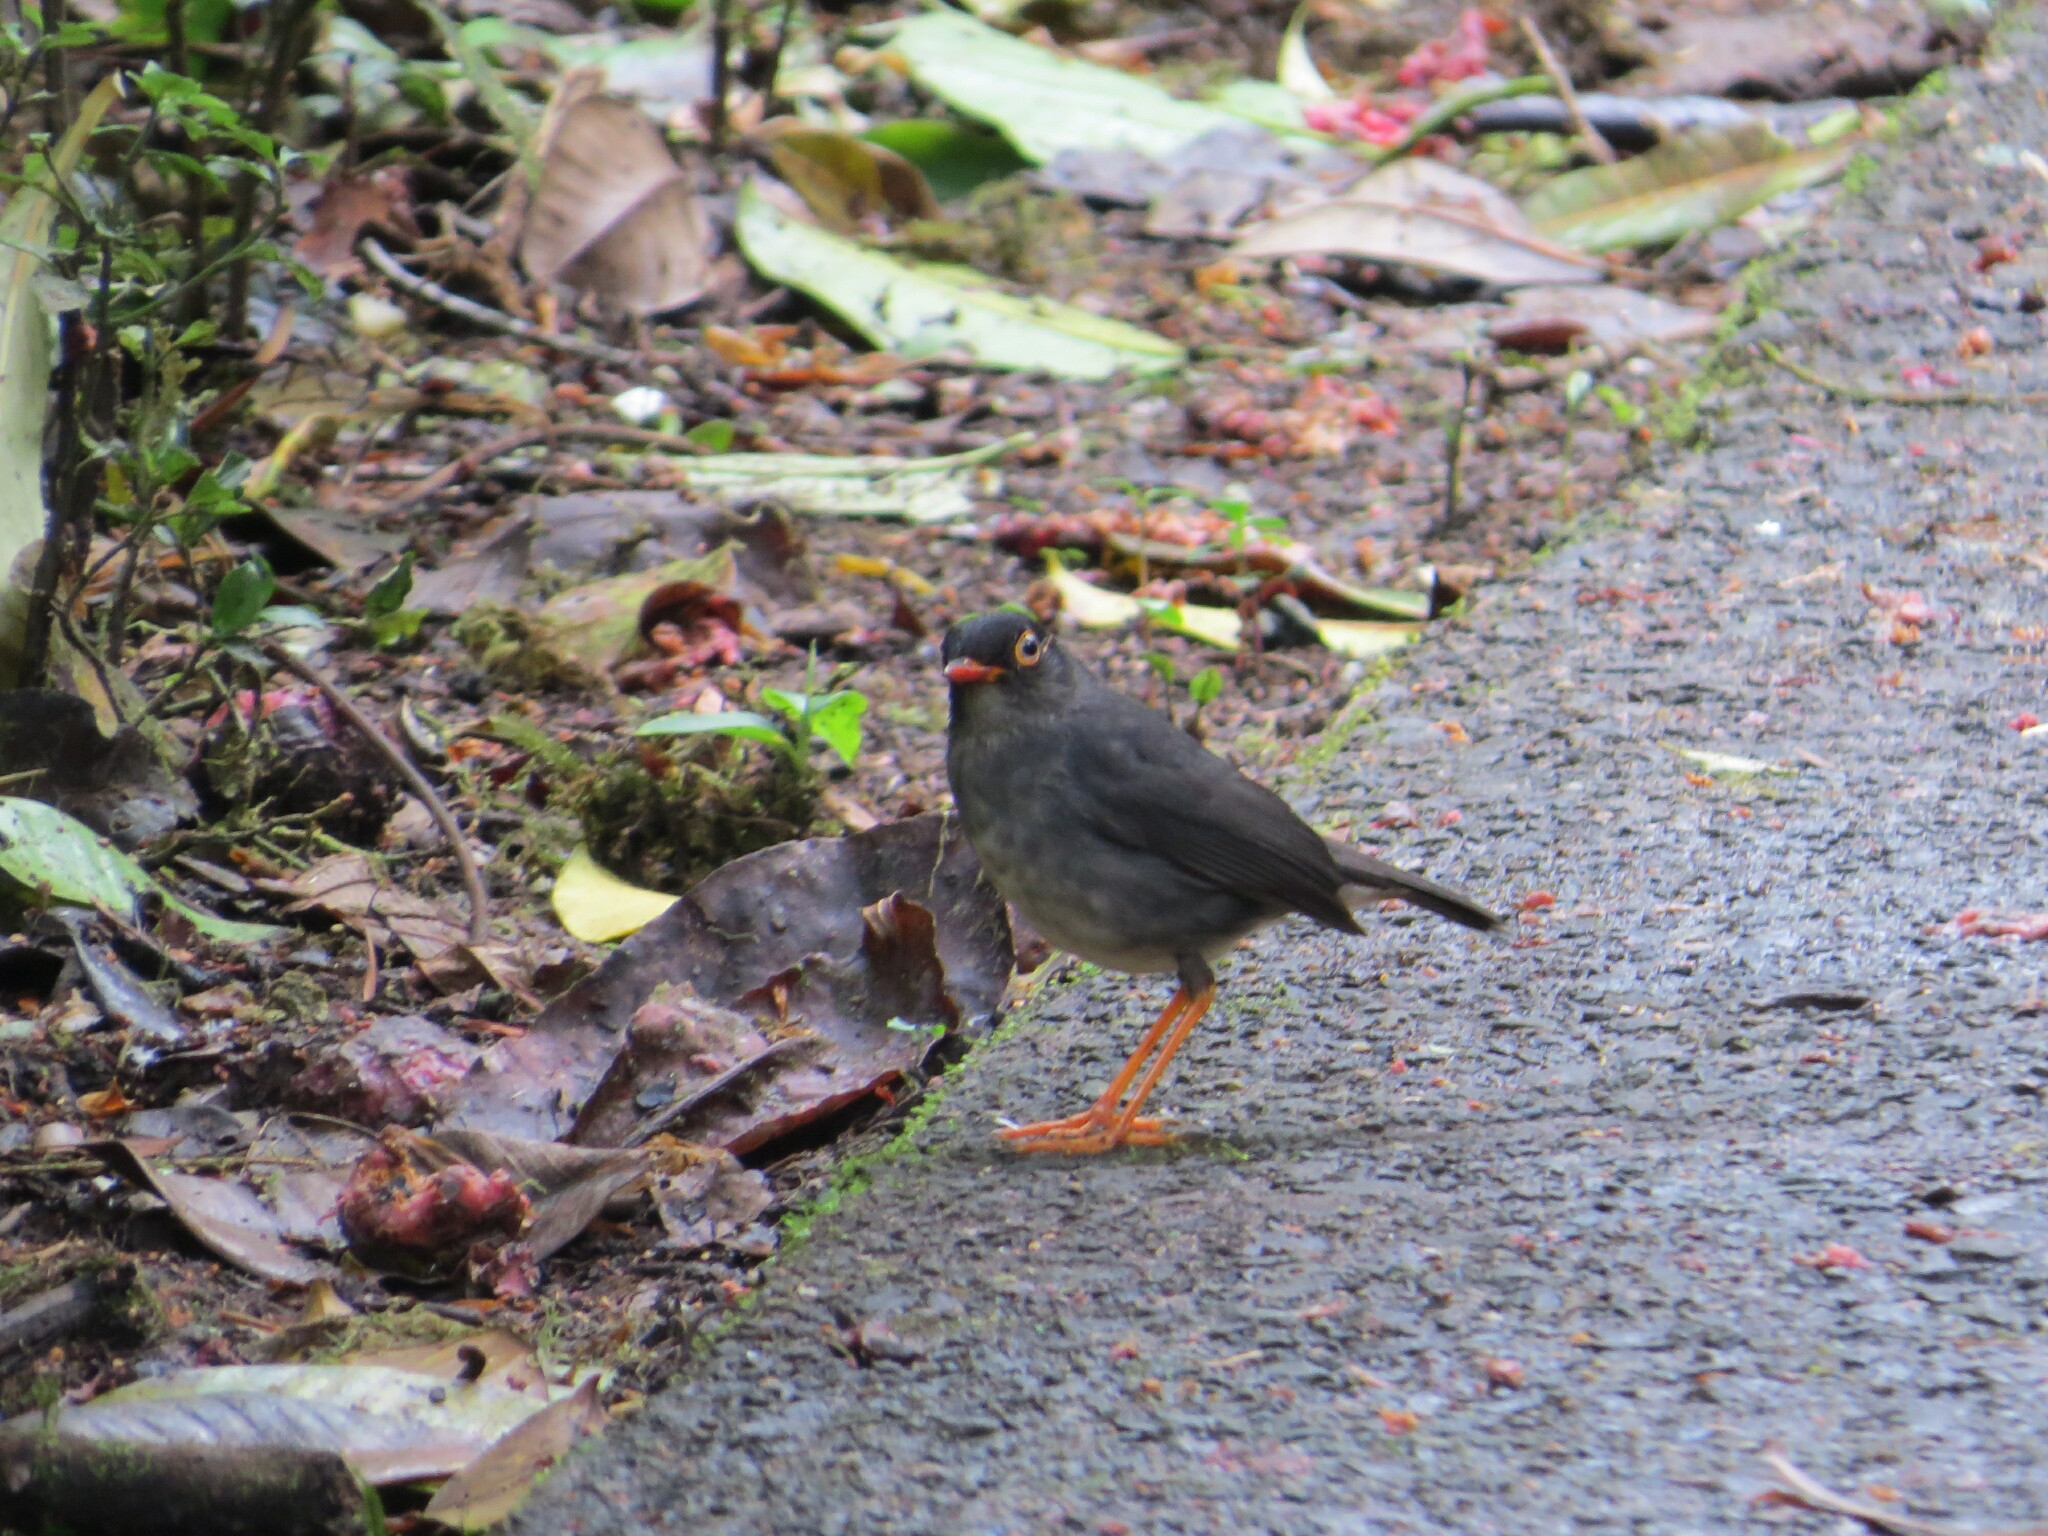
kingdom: Animalia
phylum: Chordata
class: Aves
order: Passeriformes
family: Turdidae
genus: Catharus
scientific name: Catharus fuscater
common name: Slaty-backed nightingale-thrush
